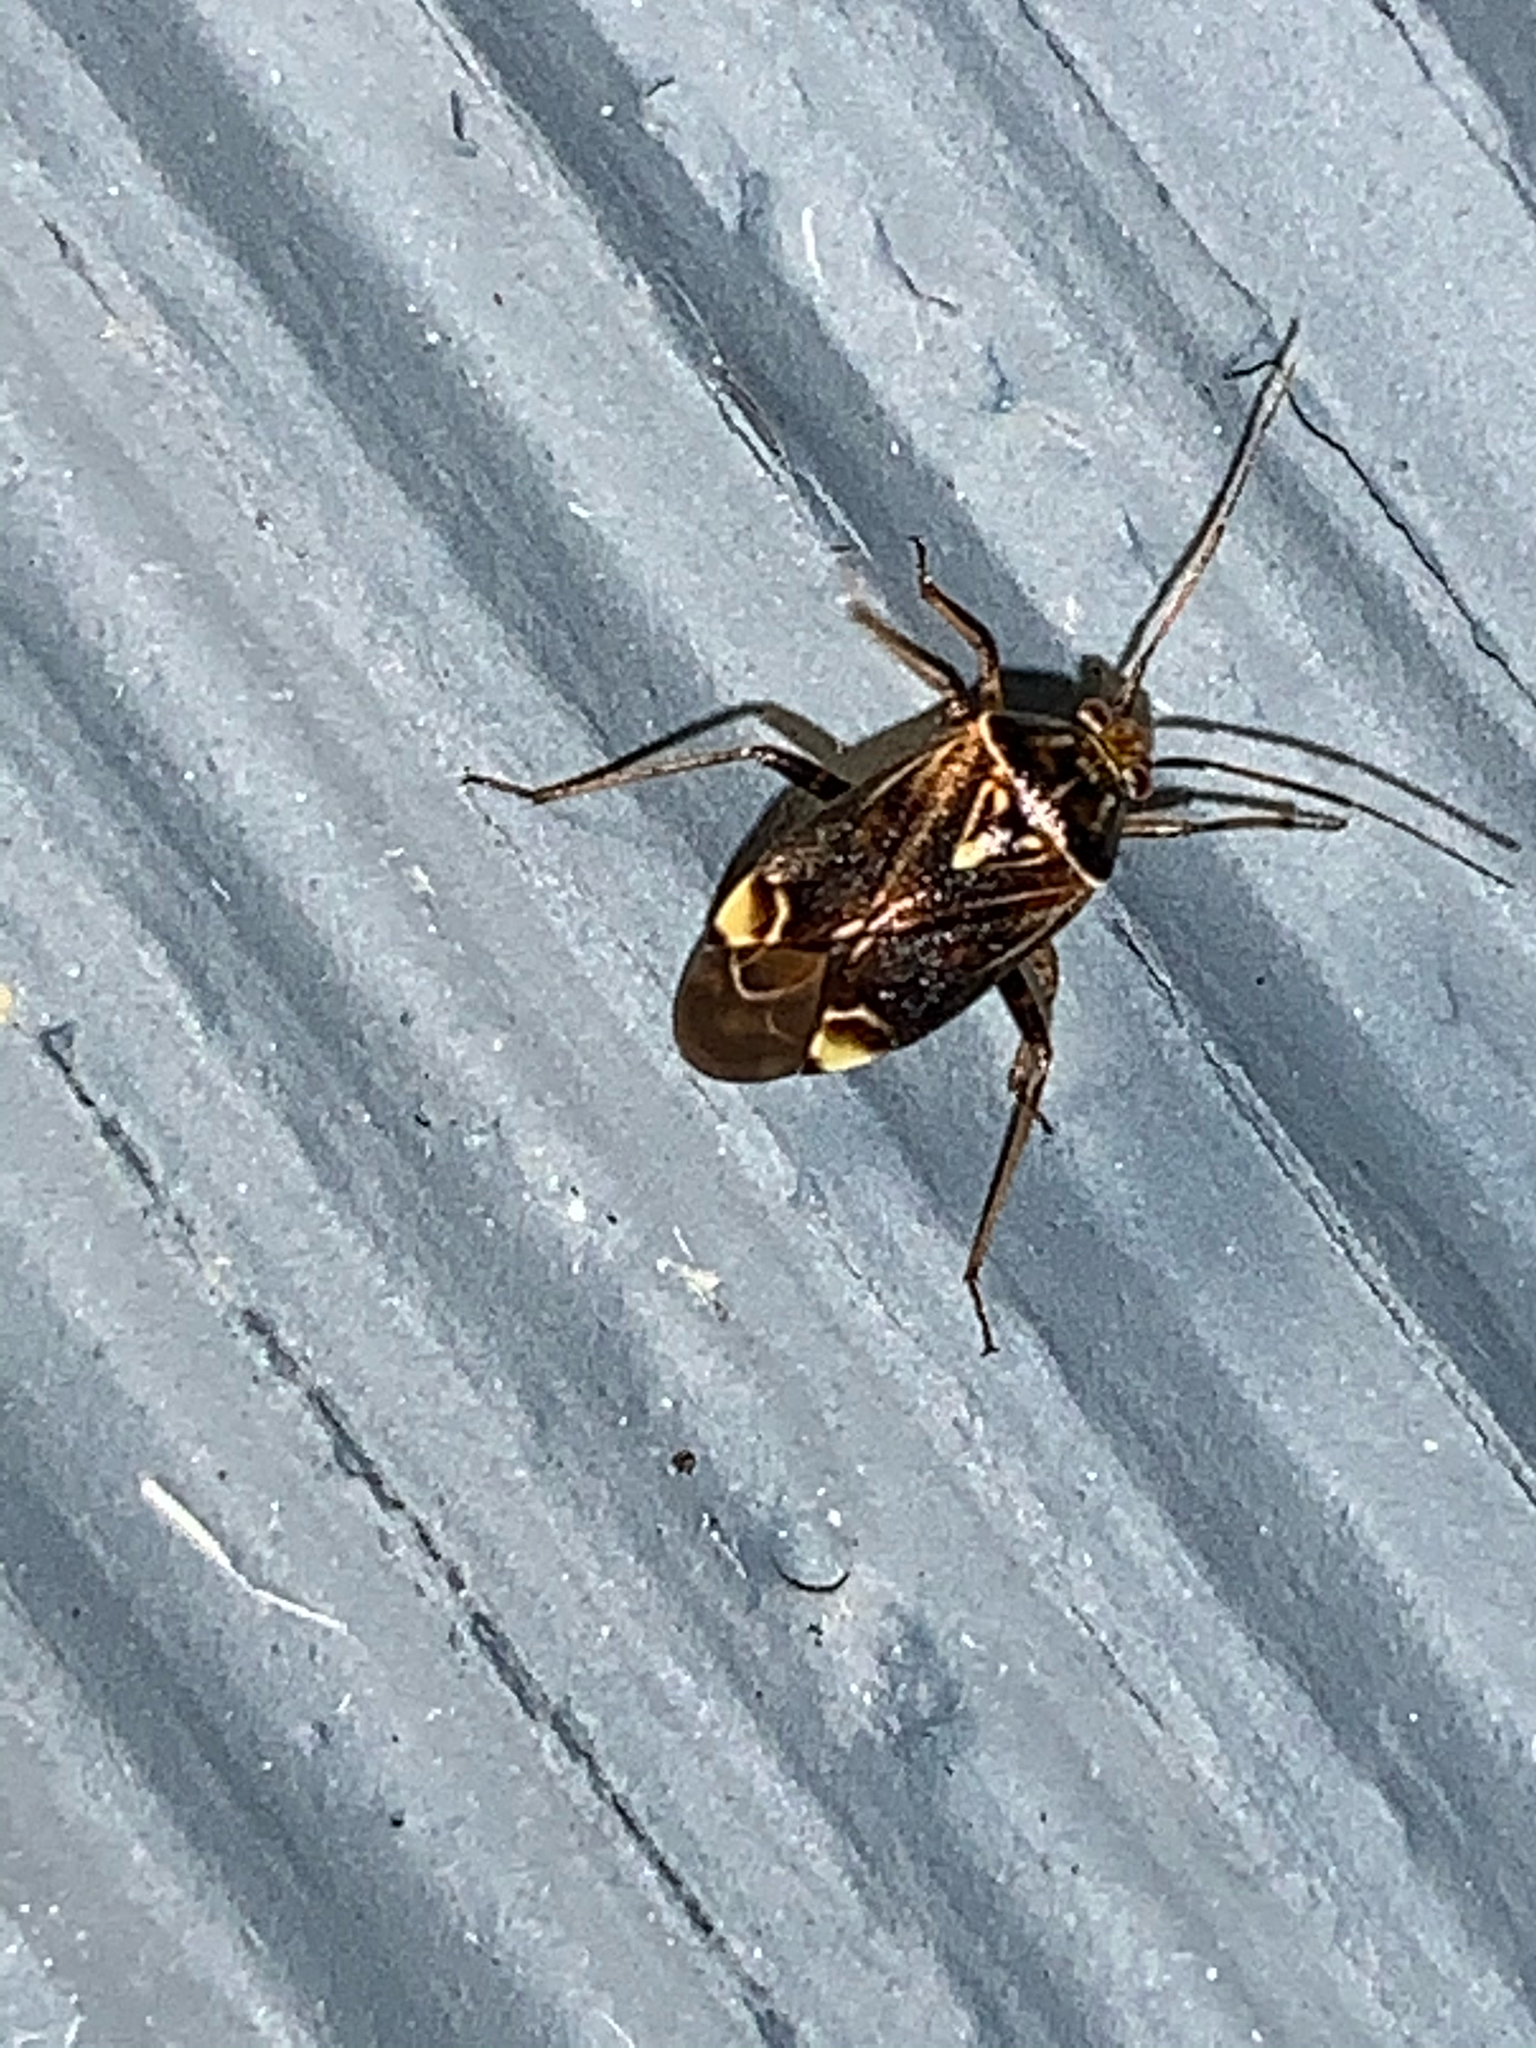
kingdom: Animalia
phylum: Arthropoda
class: Insecta
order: Hemiptera
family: Miridae
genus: Lygus
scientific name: Lygus lineolaris
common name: North american tarnished plant bug
